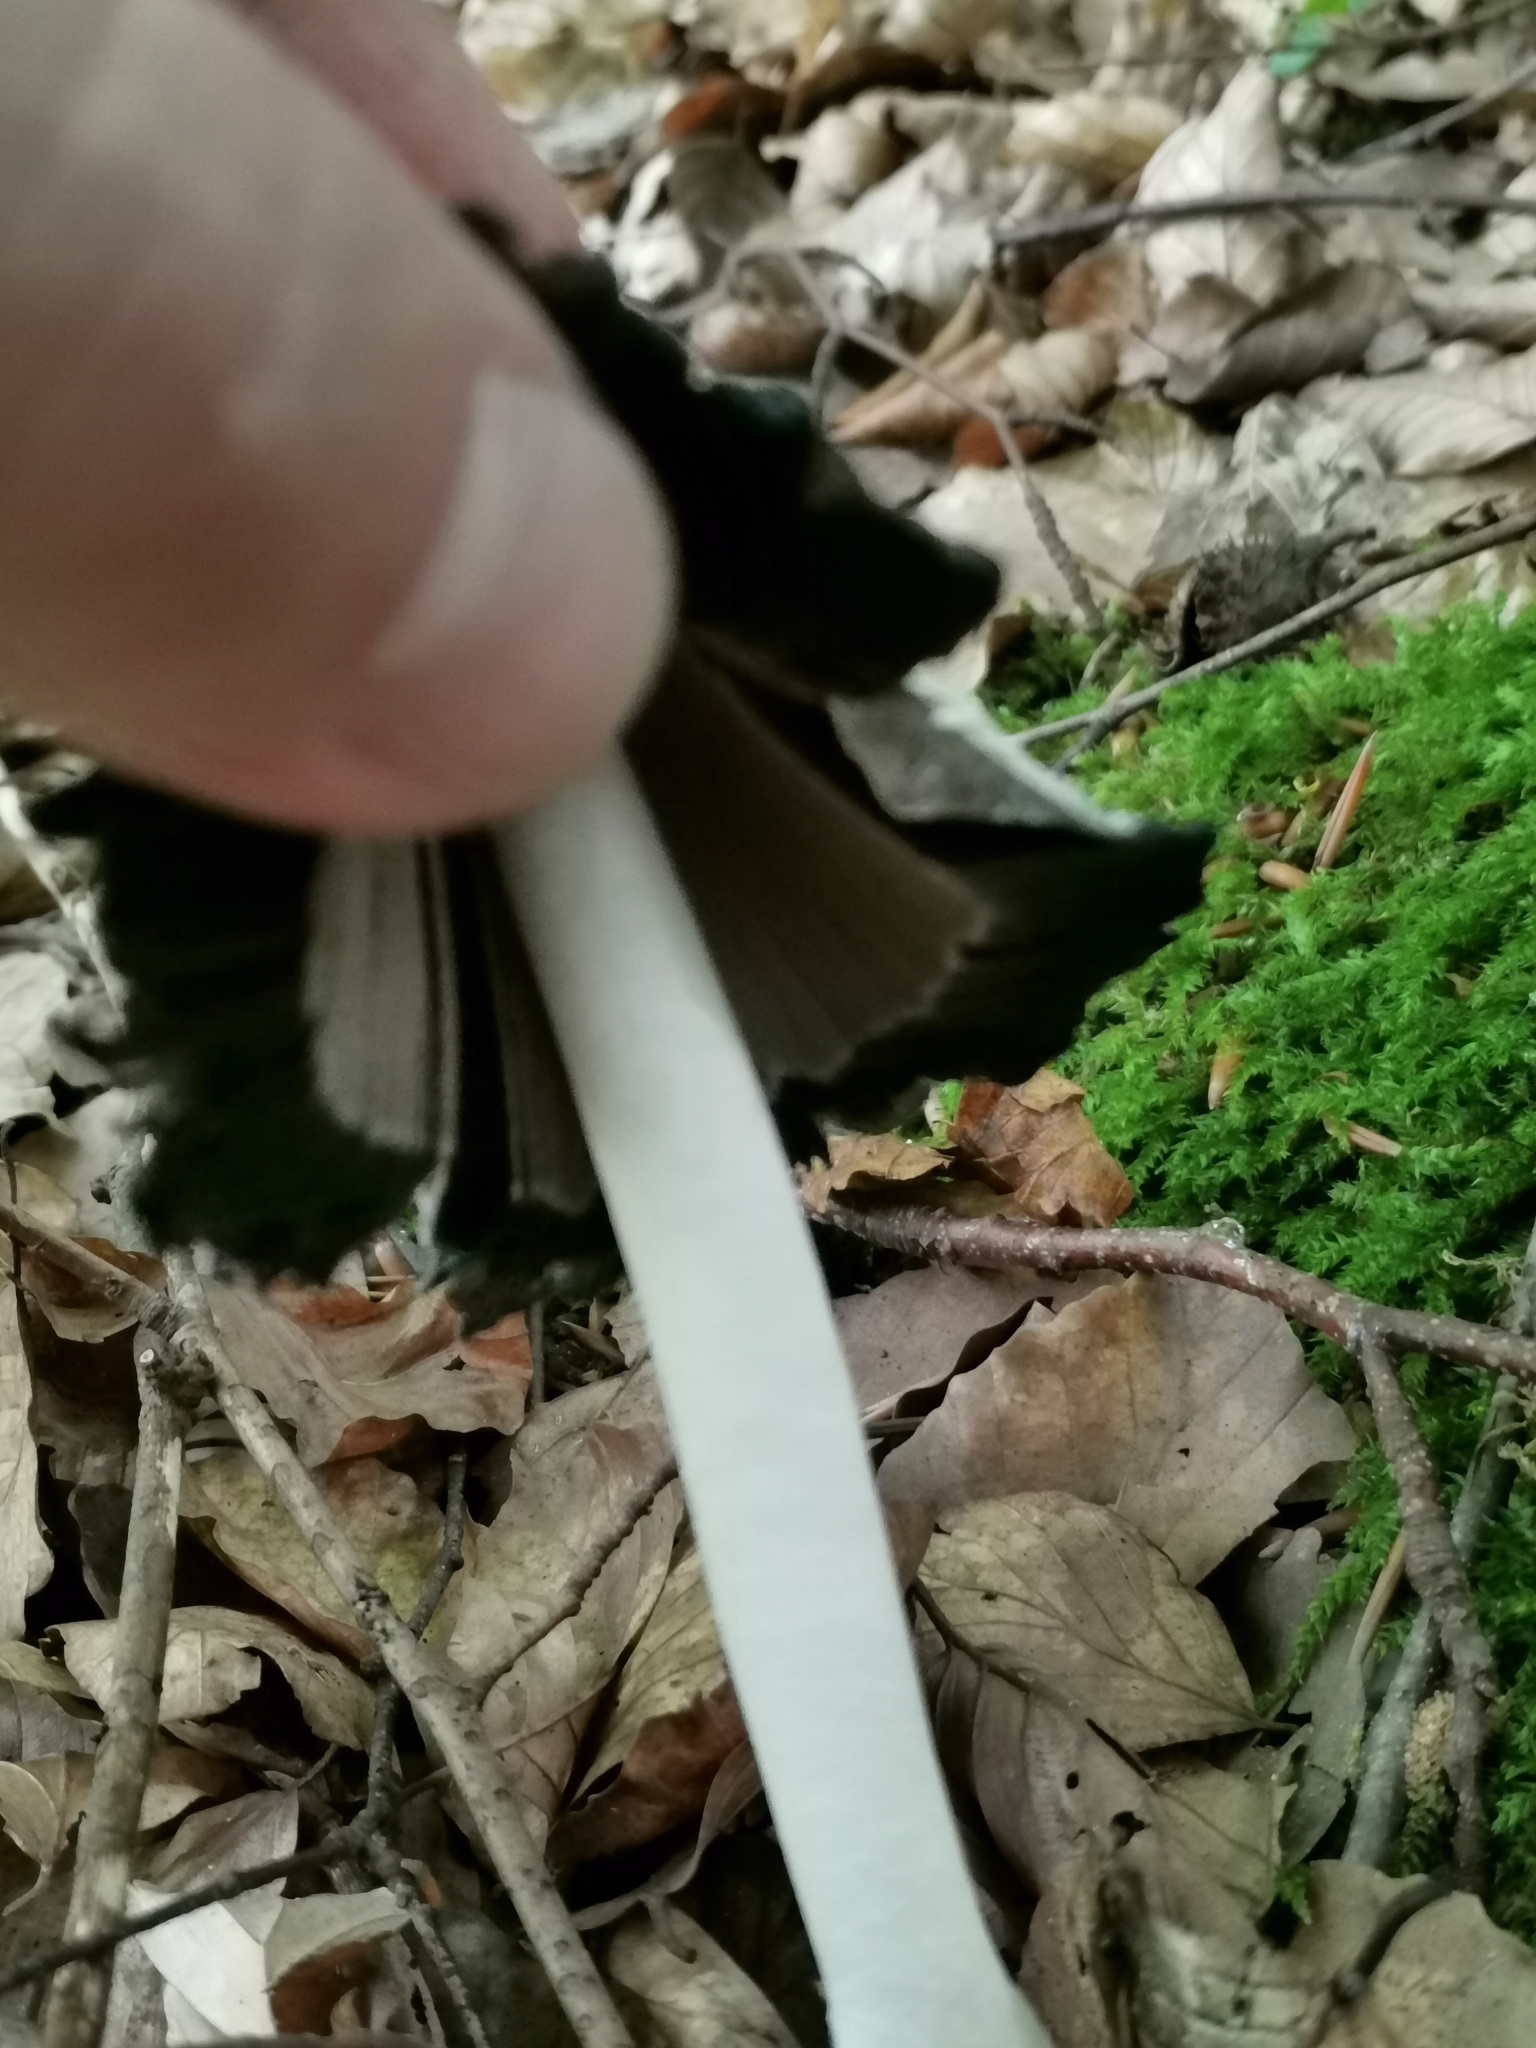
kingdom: Fungi
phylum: Basidiomycota
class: Agaricomycetes
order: Agaricales
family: Agaricaceae
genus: Coprinus
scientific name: Coprinus comatus
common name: Lawyer's wig
